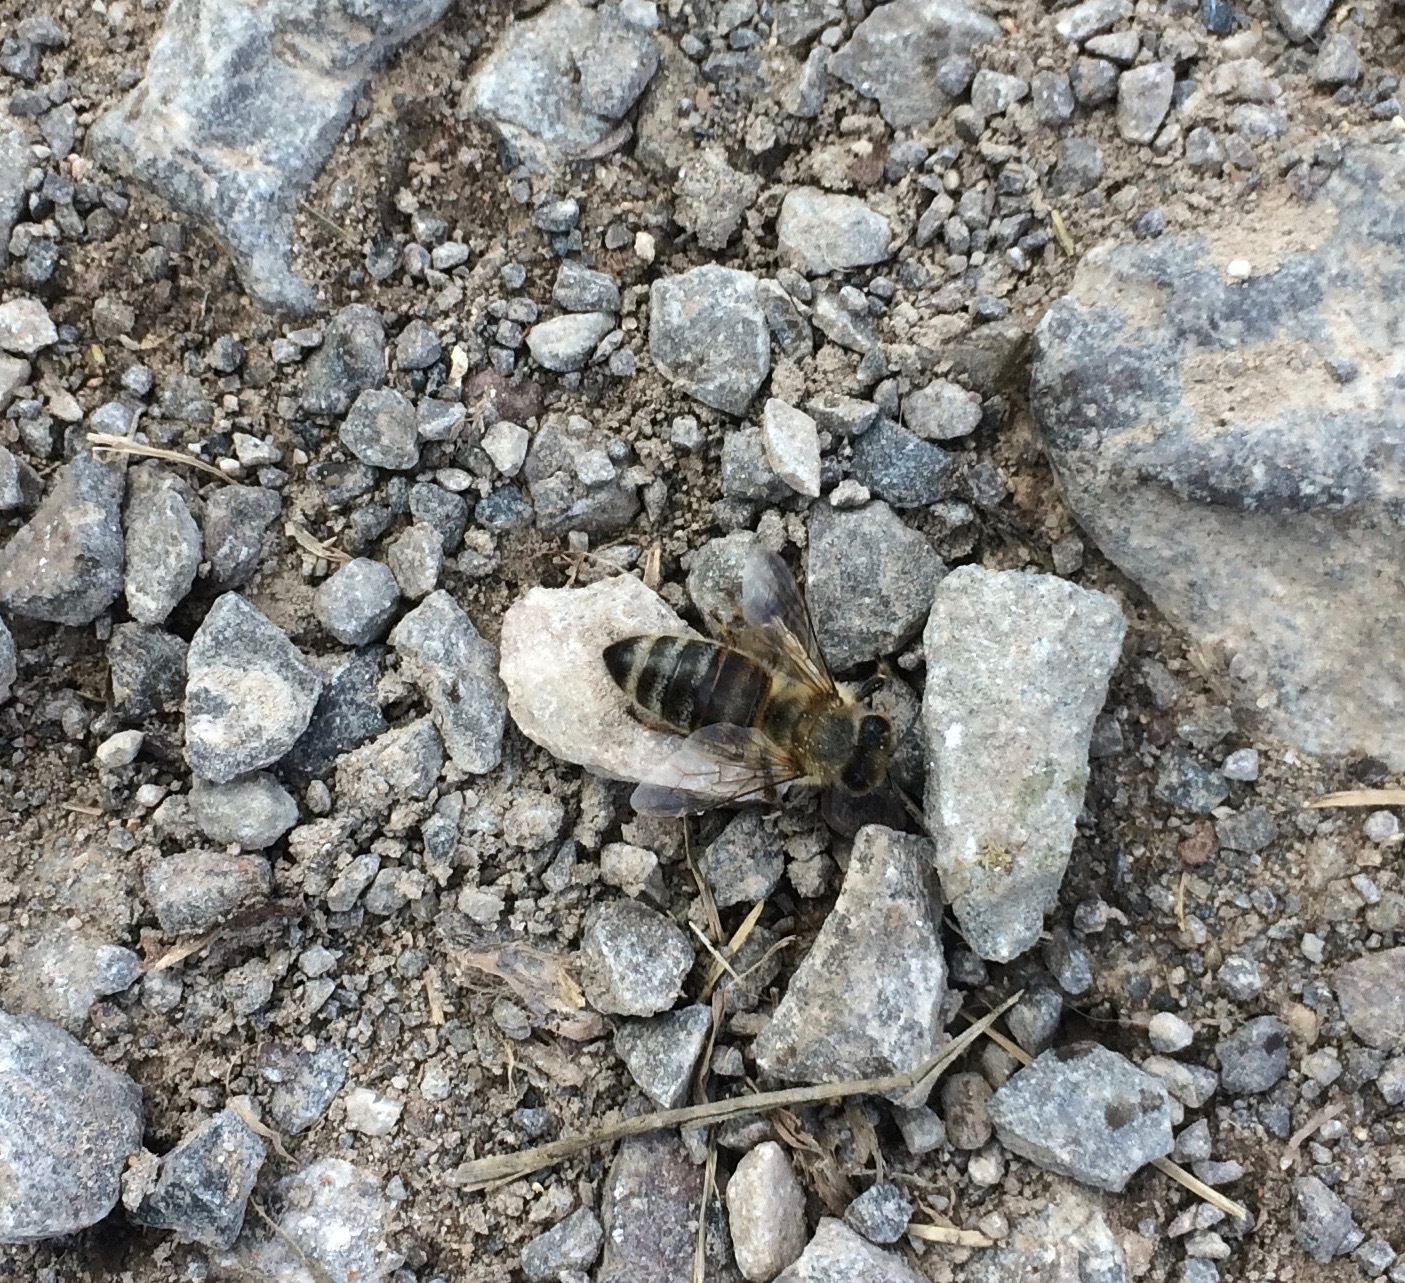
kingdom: Animalia
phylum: Arthropoda
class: Insecta
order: Hymenoptera
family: Apidae
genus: Apis
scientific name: Apis mellifera
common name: Honey bee
